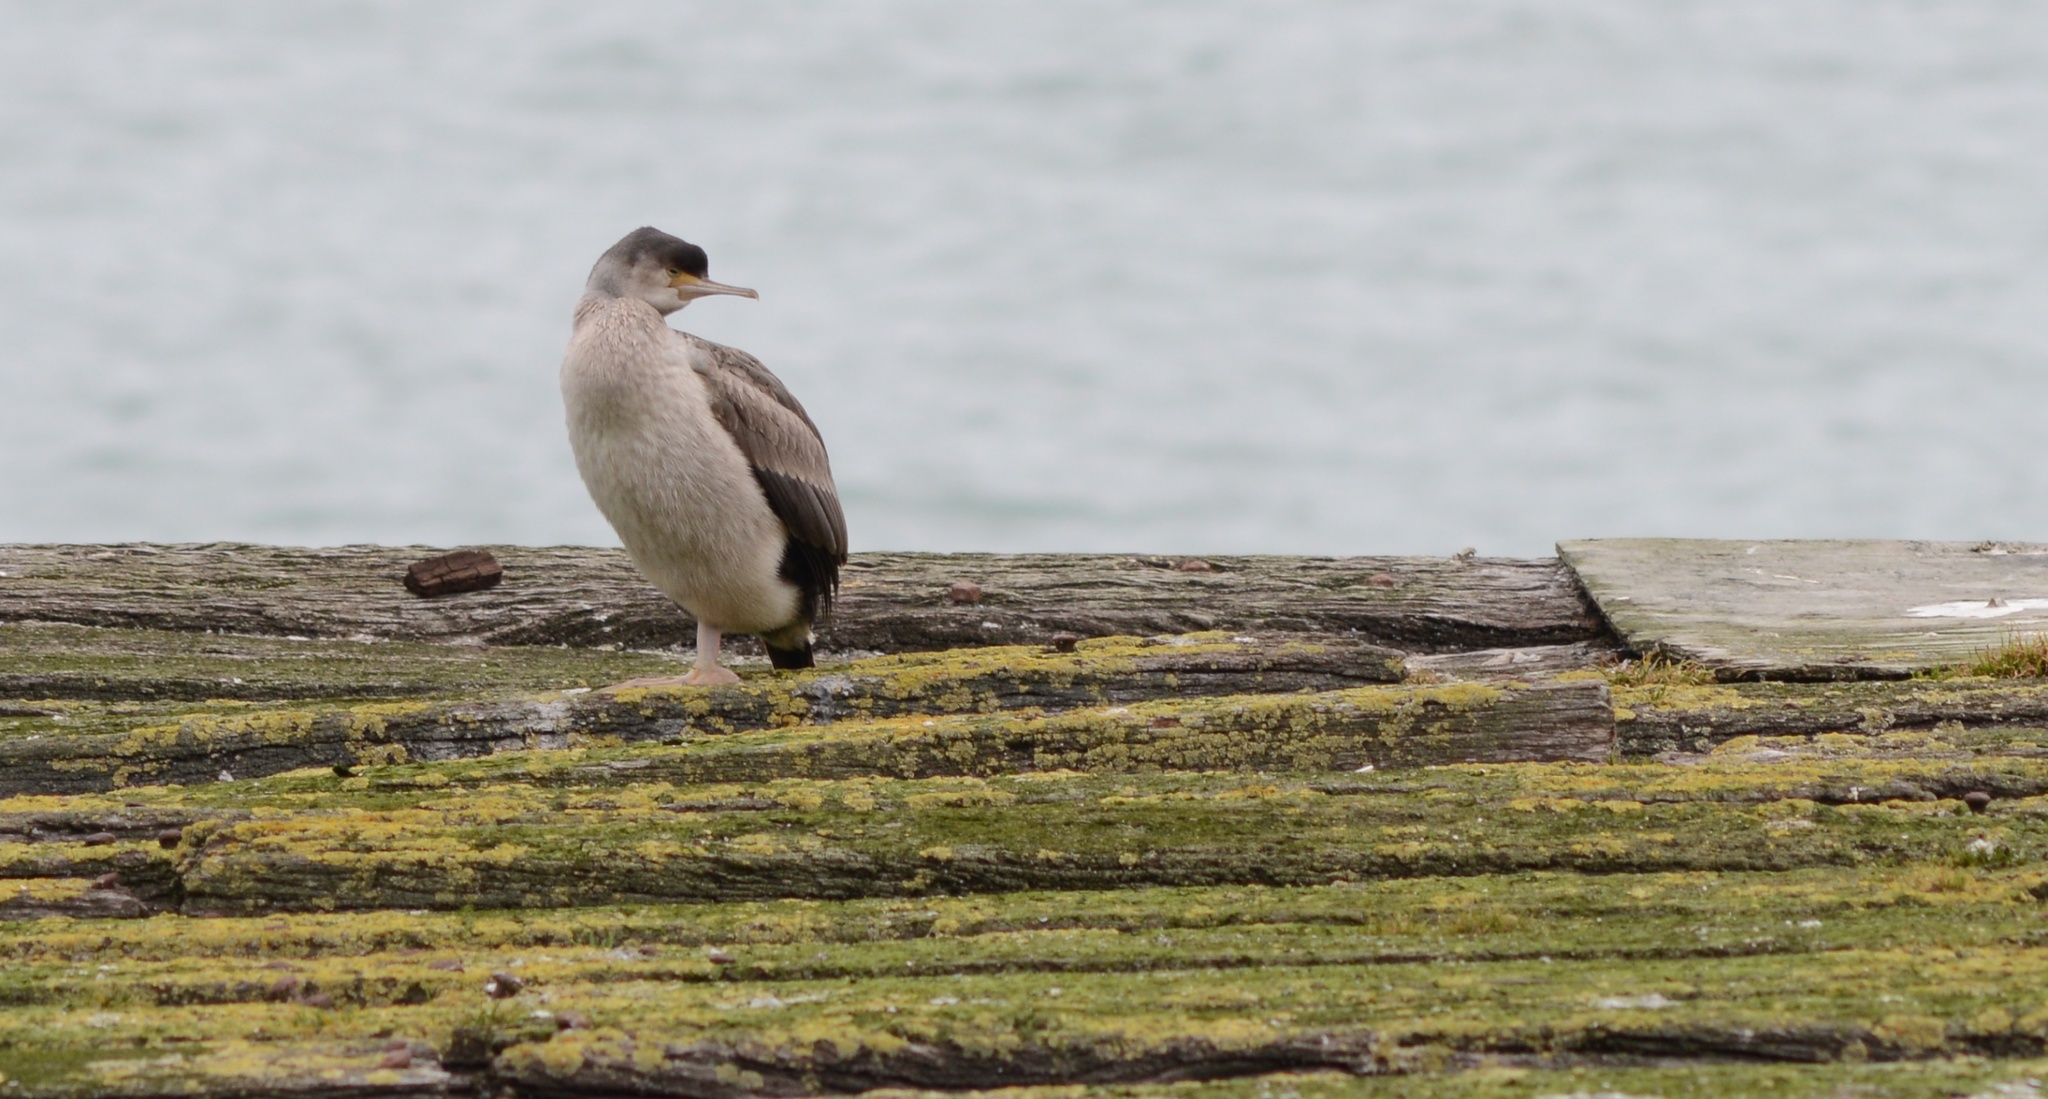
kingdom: Animalia
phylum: Chordata
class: Aves
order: Suliformes
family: Phalacrocoracidae
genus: Phalacrocorax
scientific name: Phalacrocorax punctatus
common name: Spotted shag
